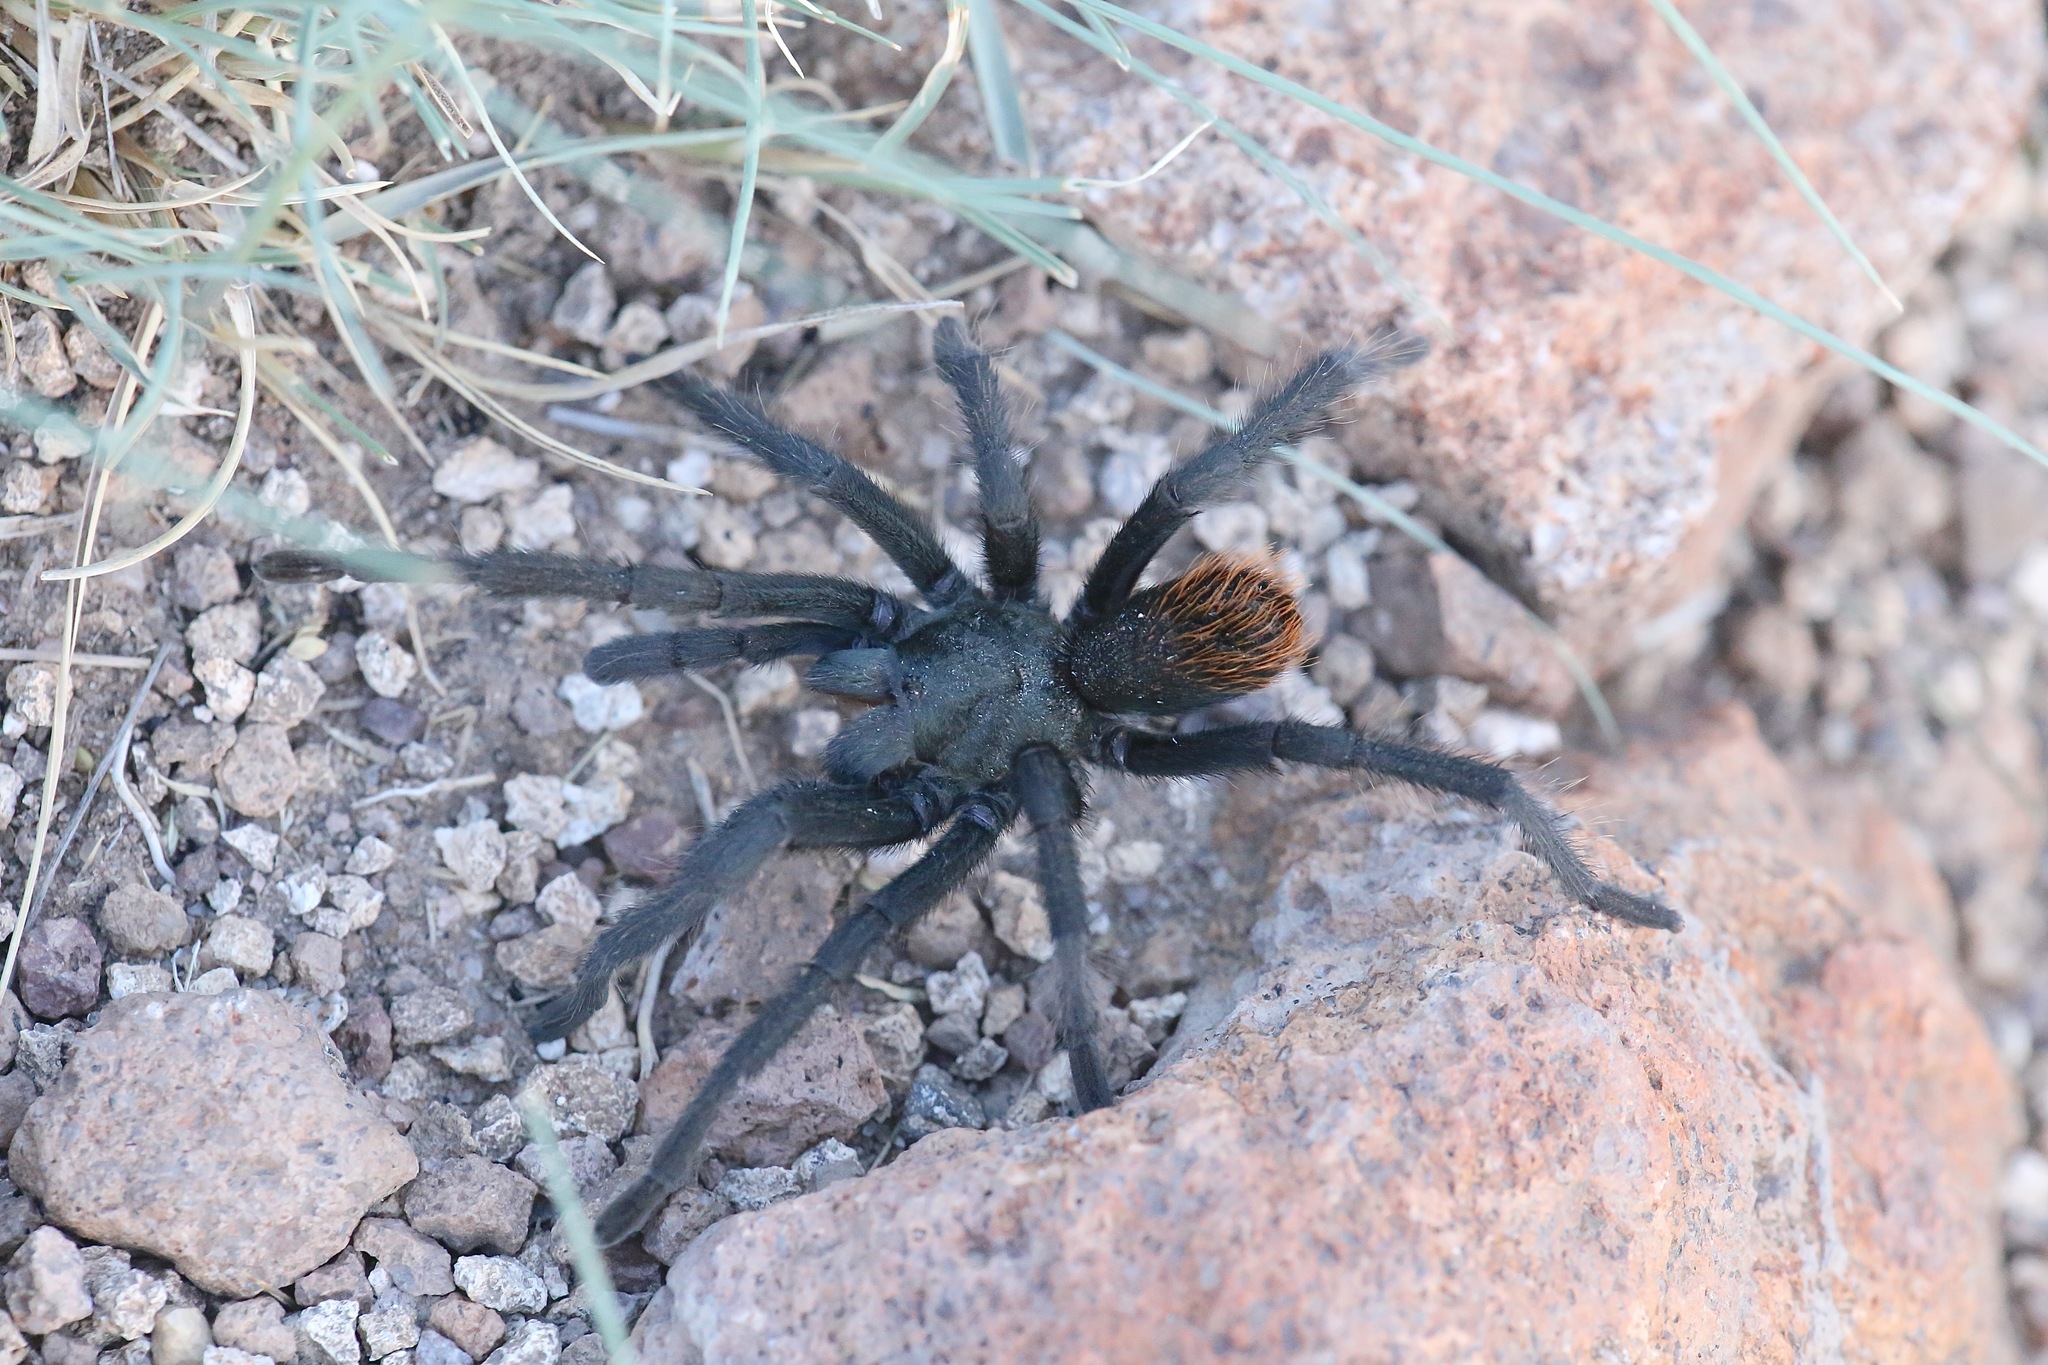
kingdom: Animalia
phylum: Arthropoda
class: Arachnida
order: Araneae
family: Theraphosidae
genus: Aphonopelma
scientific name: Aphonopelma vorhiesi
